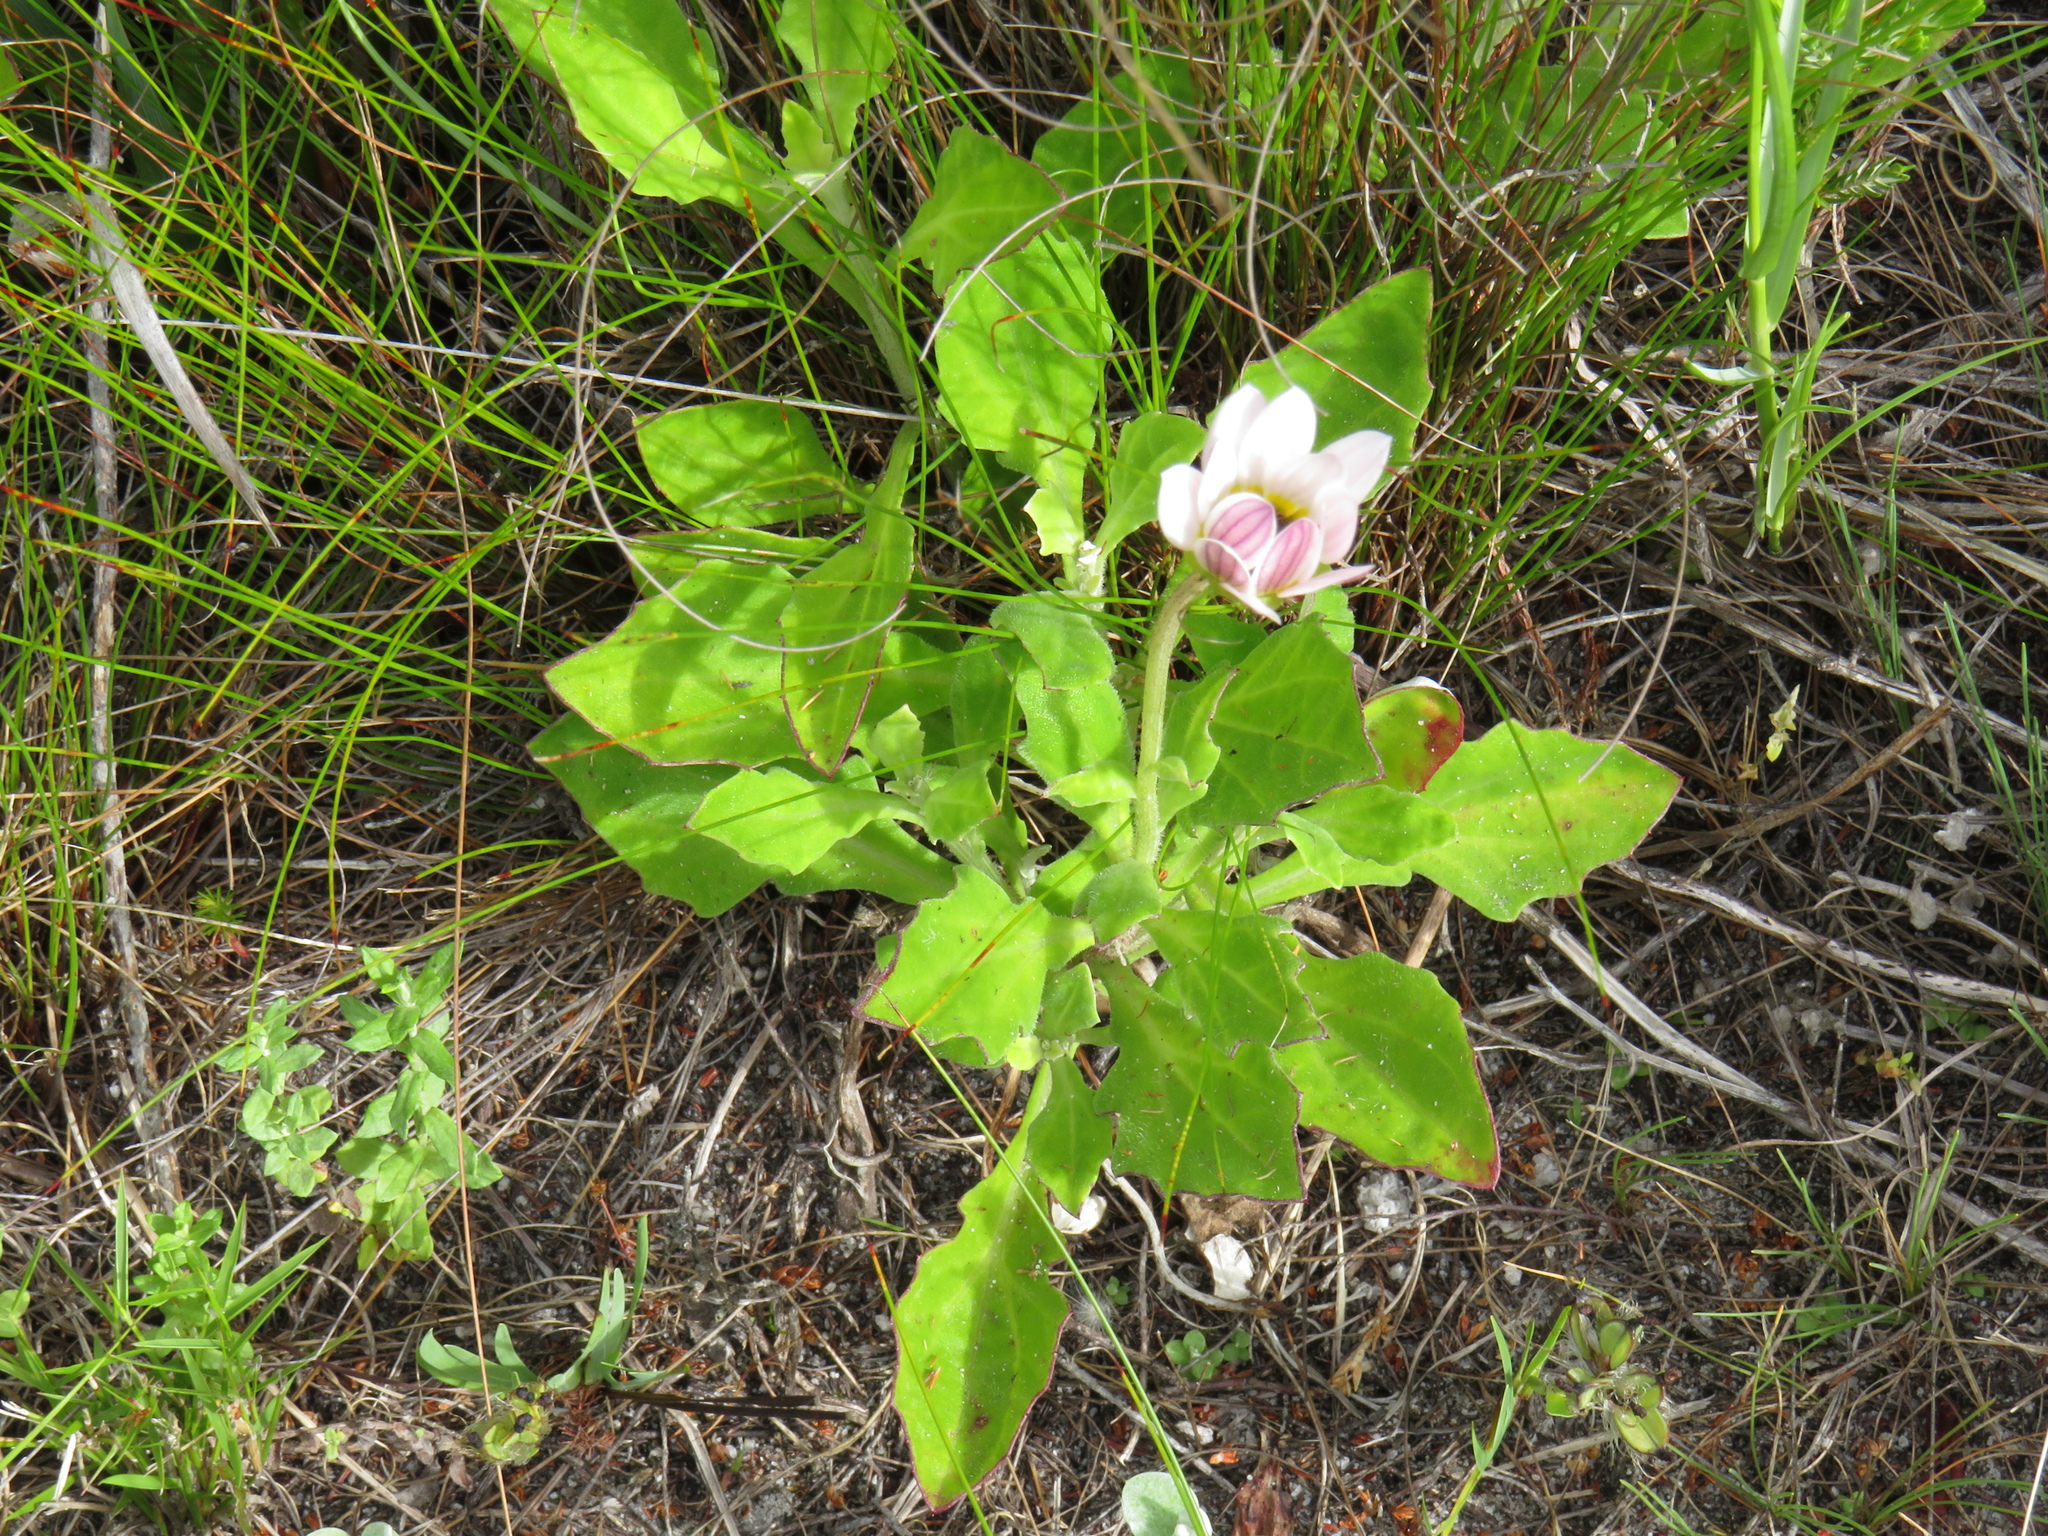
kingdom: Plantae
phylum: Tracheophyta
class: Magnoliopsida
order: Asterales
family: Asteraceae
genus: Arctotis
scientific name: Arctotis schlechteri
